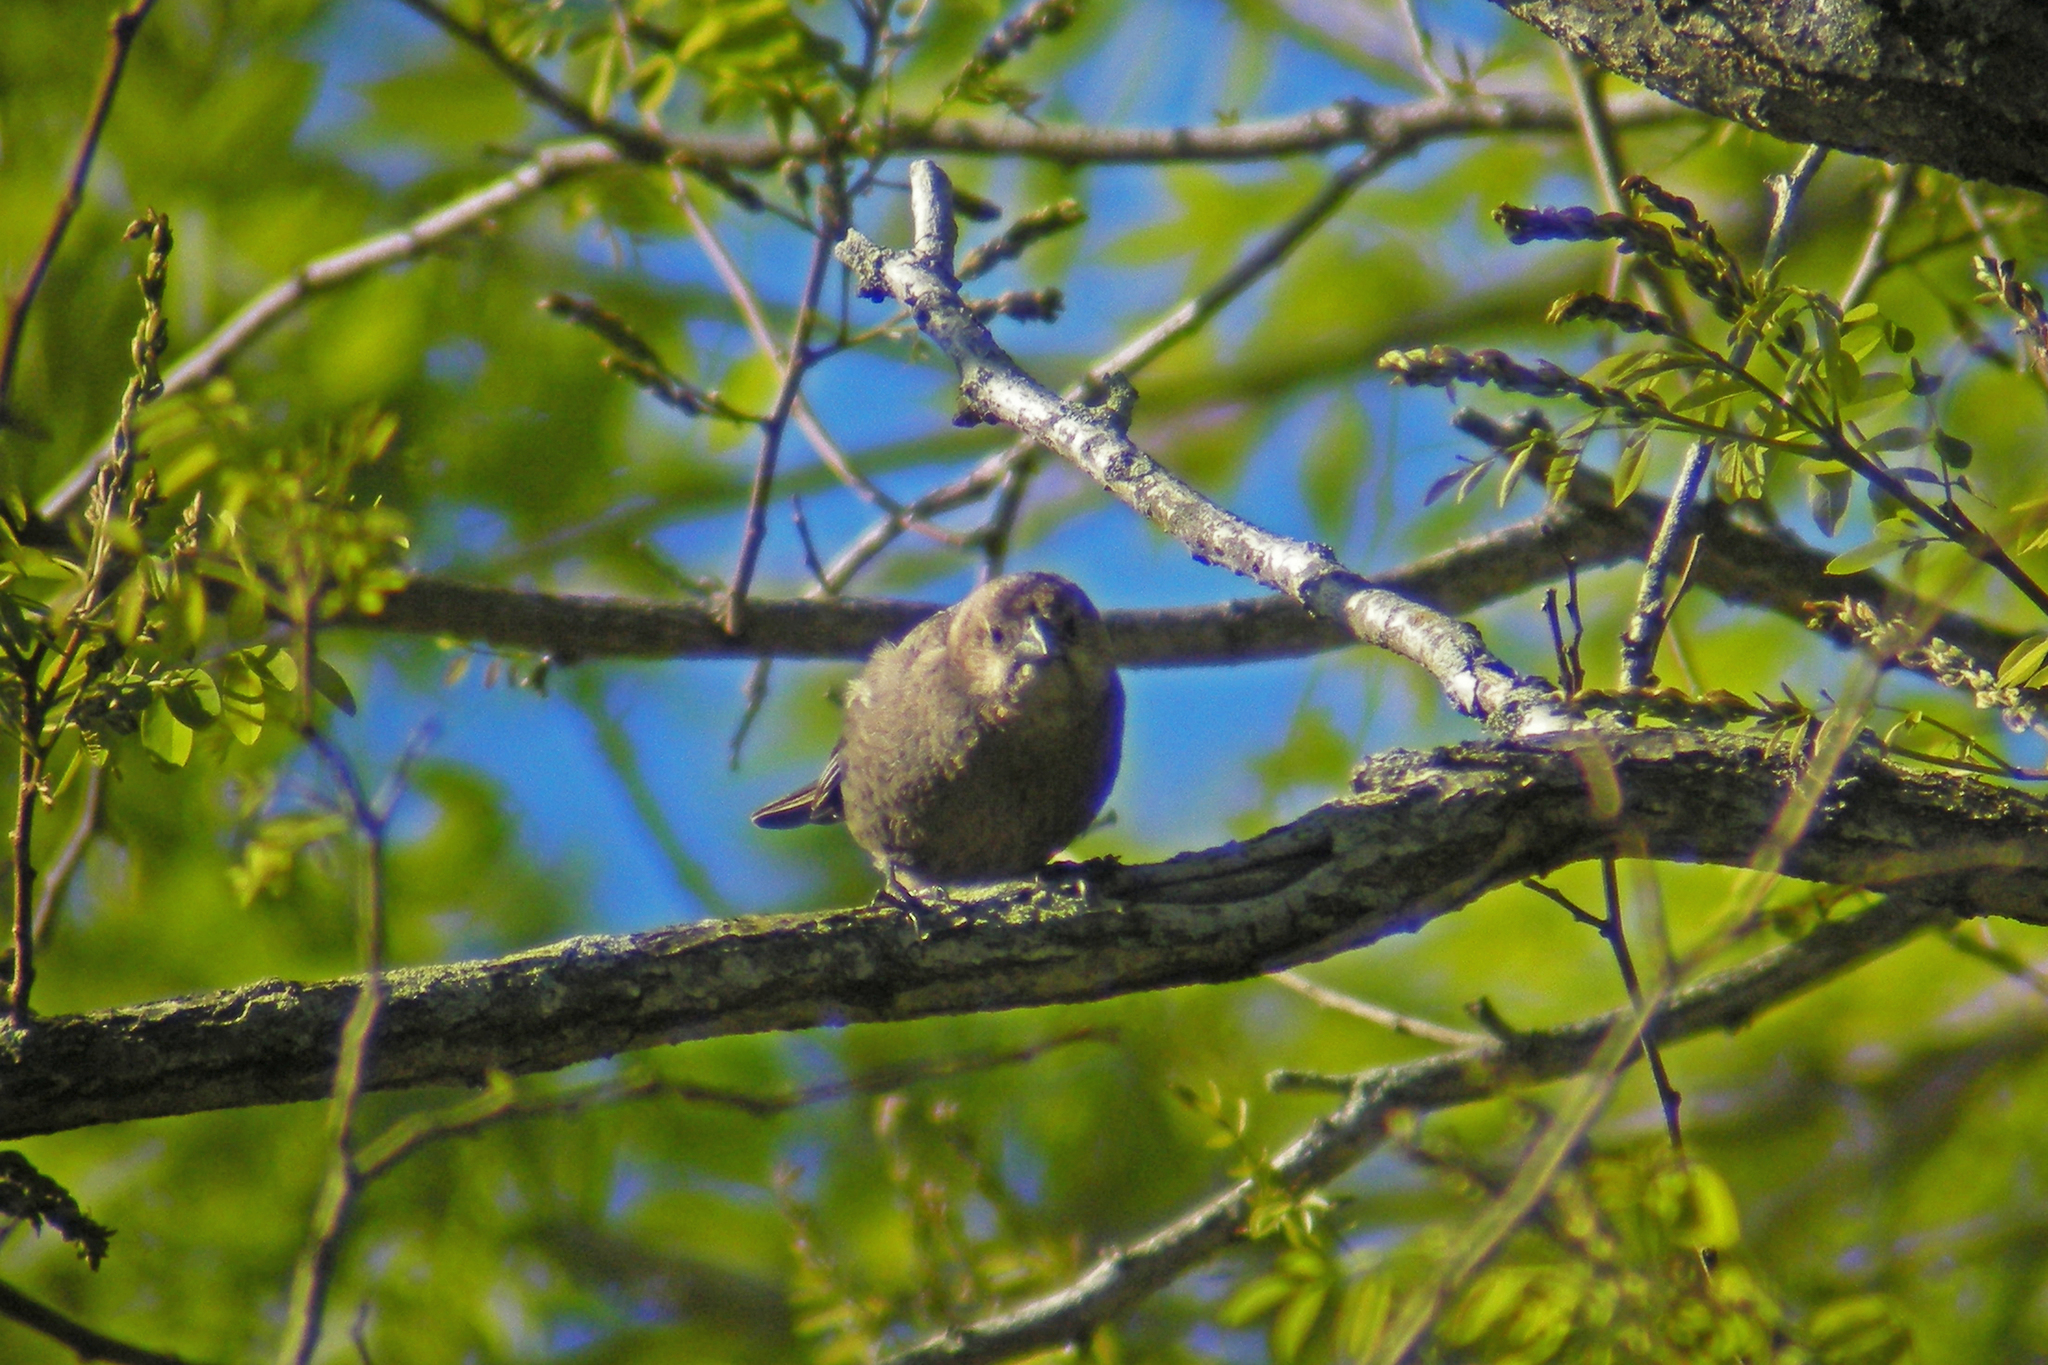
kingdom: Animalia
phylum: Chordata
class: Aves
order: Passeriformes
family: Icteridae
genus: Molothrus
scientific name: Molothrus ater
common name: Brown-headed cowbird
